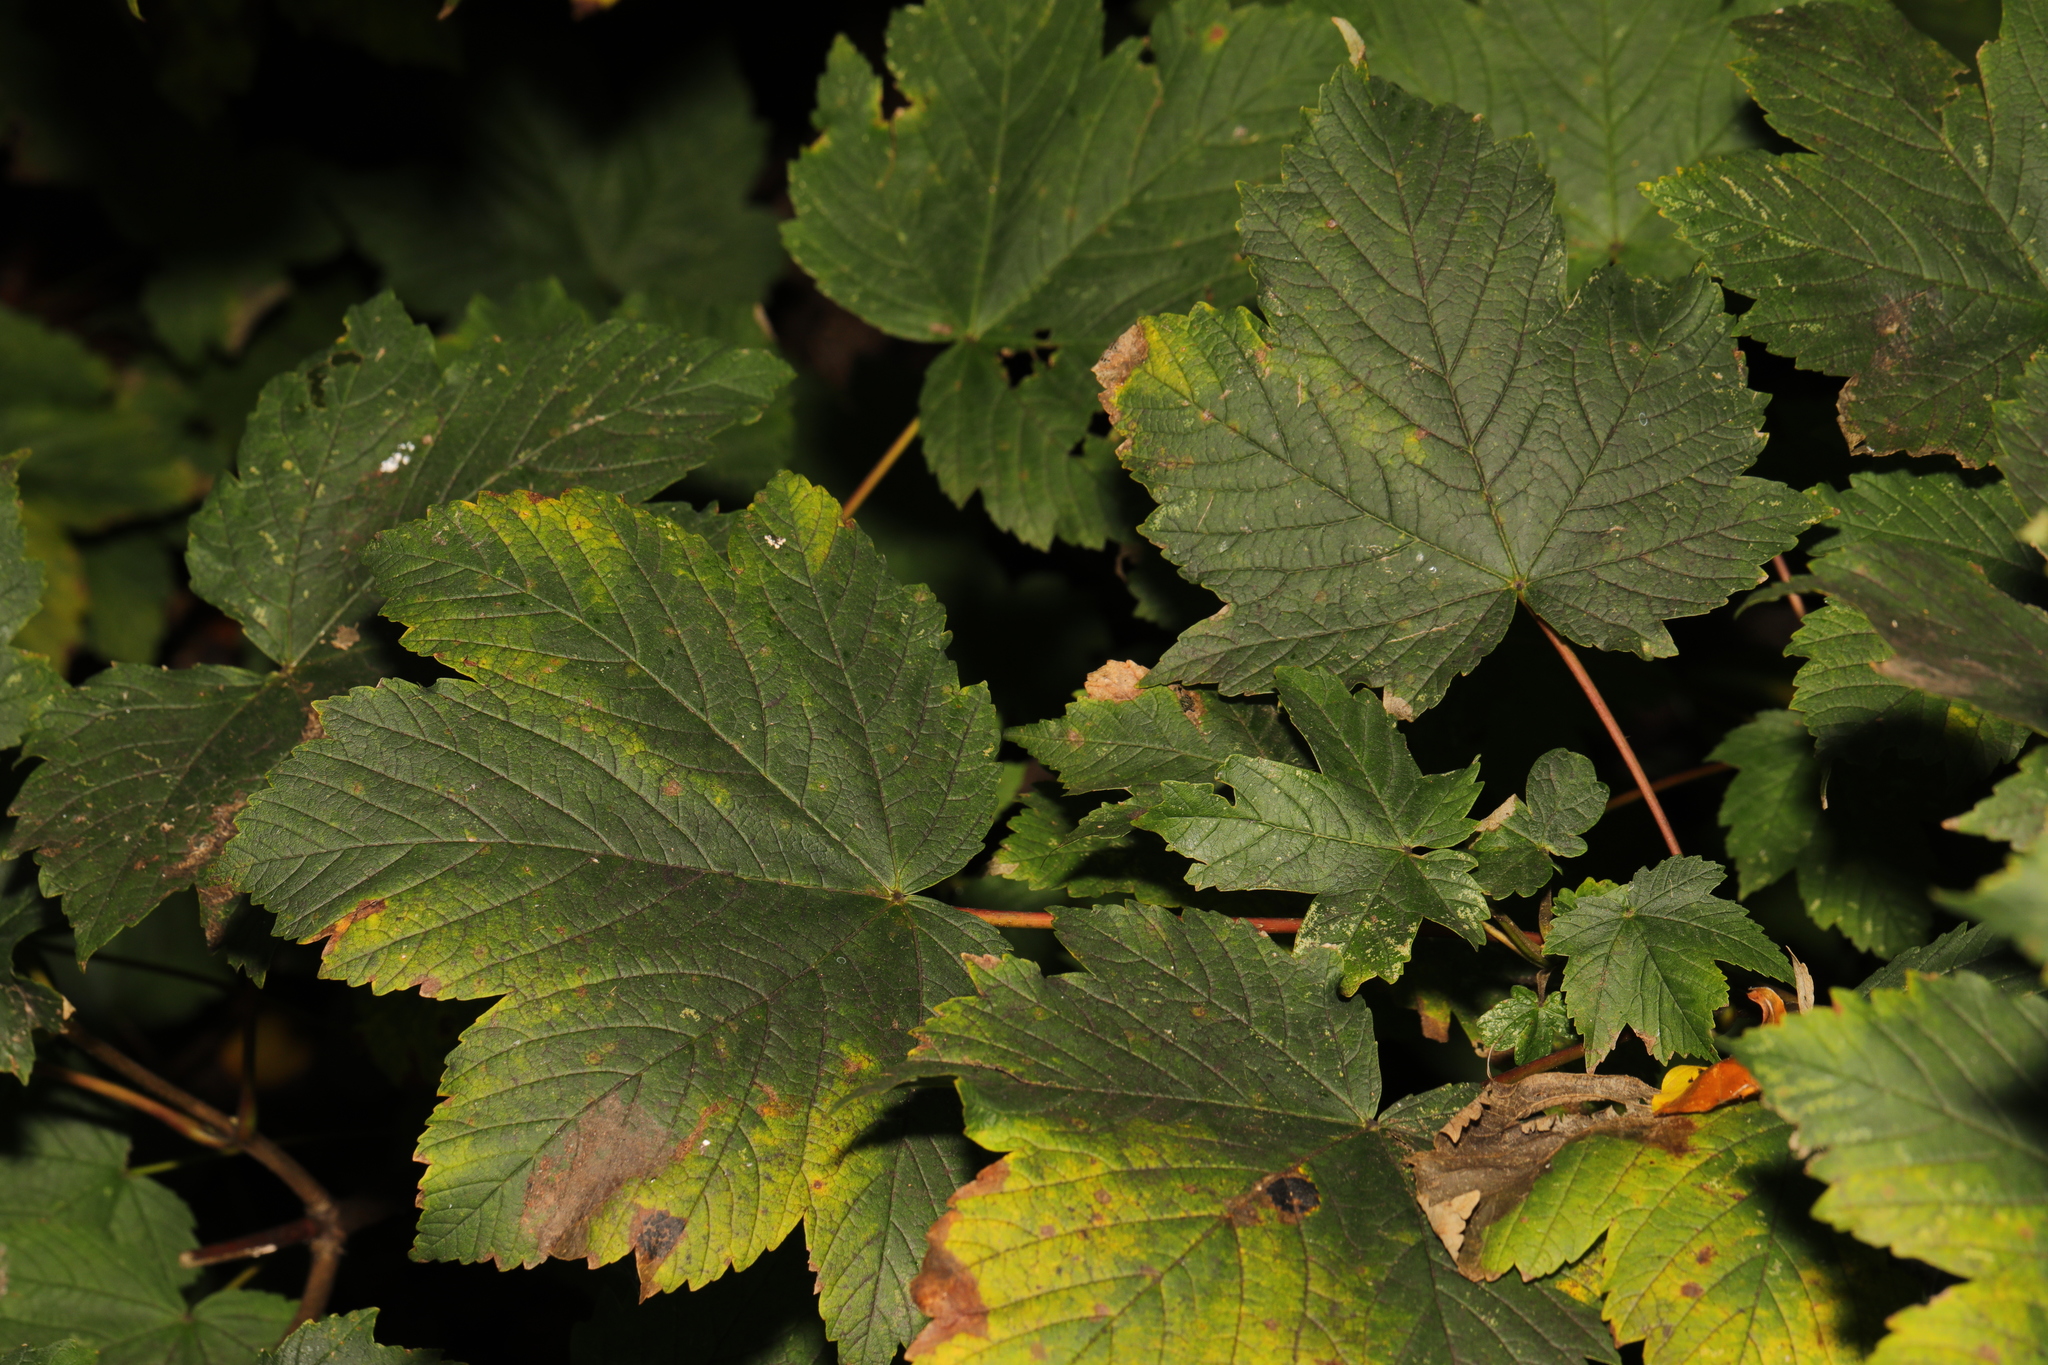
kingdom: Plantae
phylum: Tracheophyta
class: Magnoliopsida
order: Sapindales
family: Sapindaceae
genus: Acer
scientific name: Acer pseudoplatanus
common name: Sycamore
